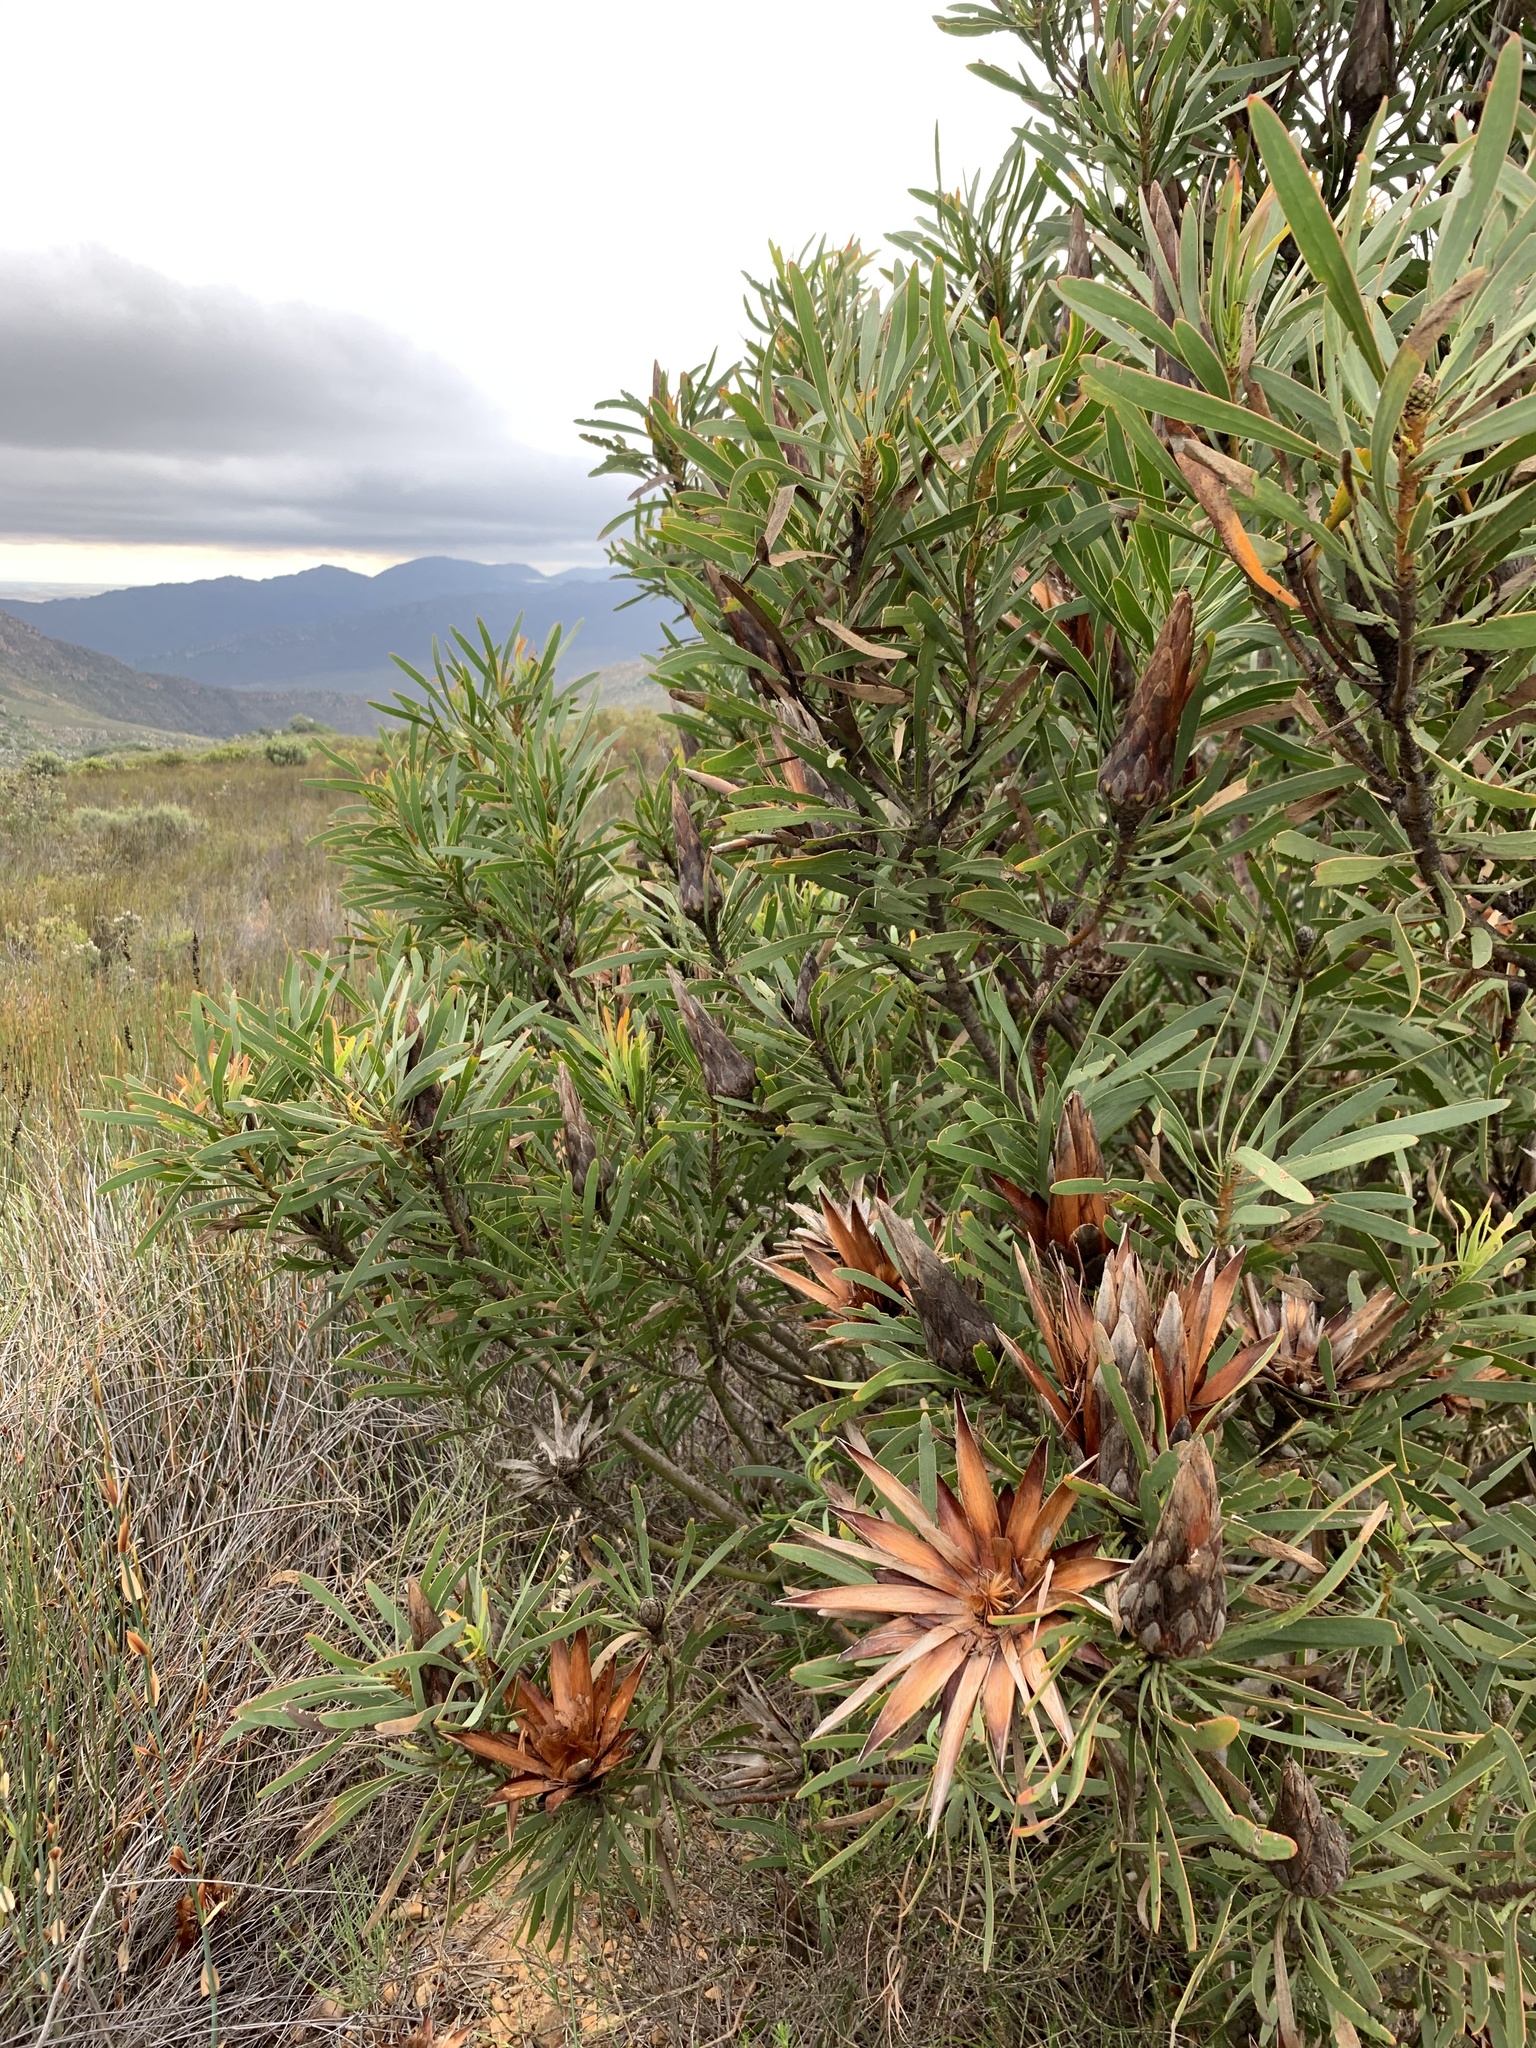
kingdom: Plantae
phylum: Tracheophyta
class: Magnoliopsida
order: Proteales
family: Proteaceae
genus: Protea
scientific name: Protea repens
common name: Sugarbush
